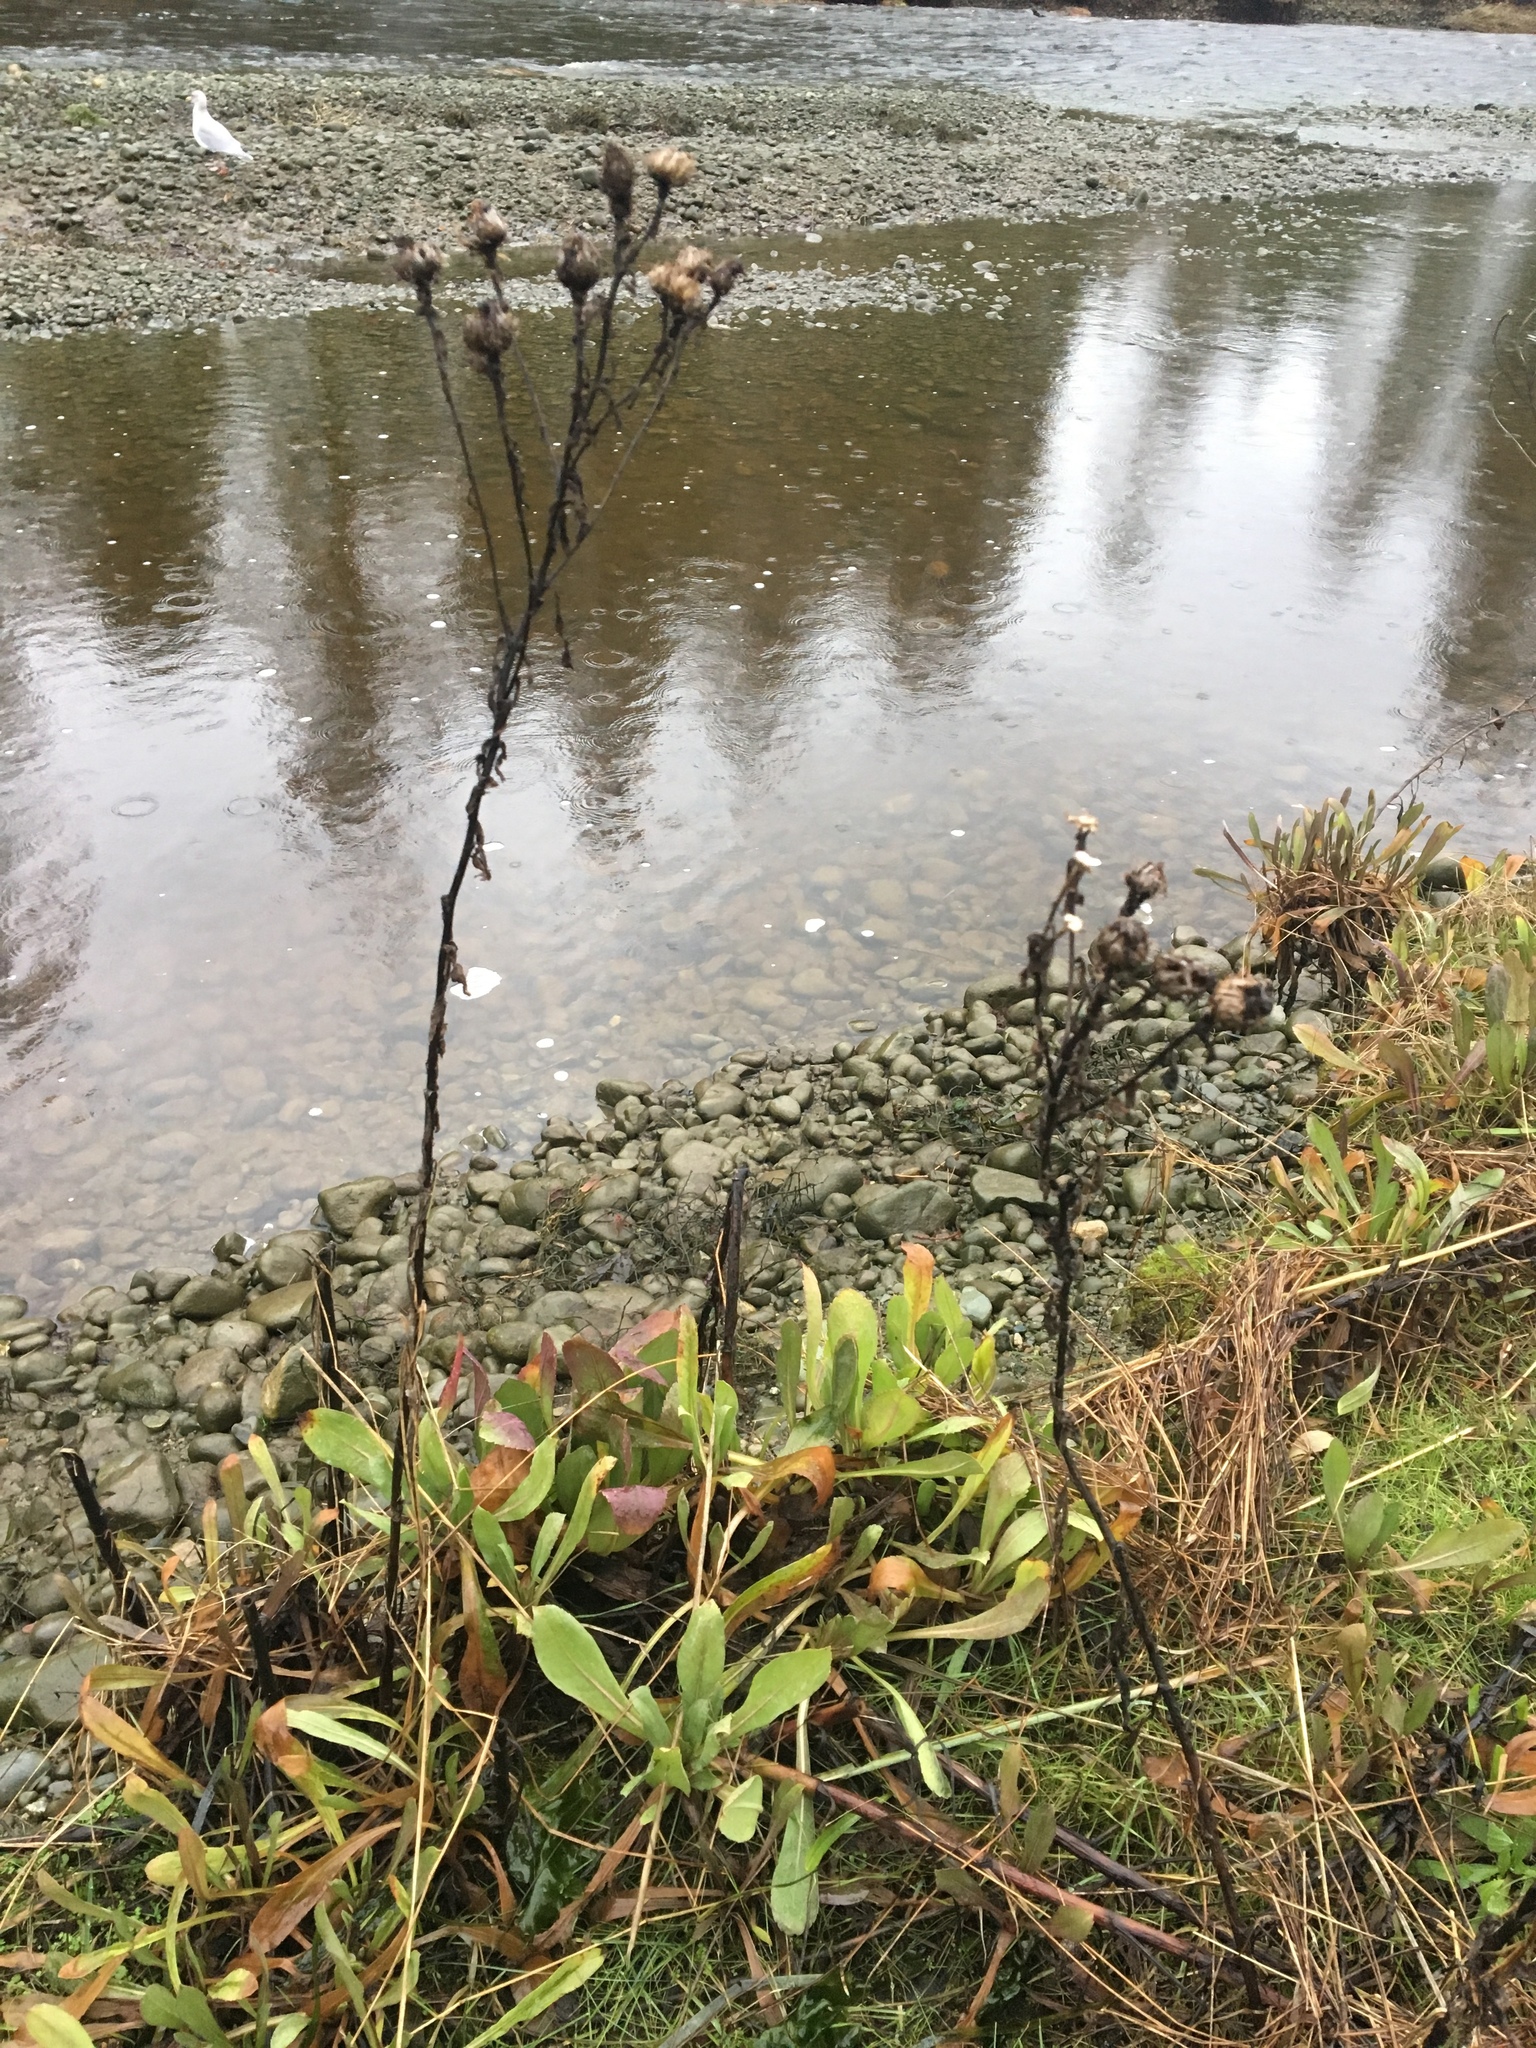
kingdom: Plantae
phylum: Tracheophyta
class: Magnoliopsida
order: Asterales
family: Asteraceae
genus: Grindelia
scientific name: Grindelia hirsutula
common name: Hairy gumweed
